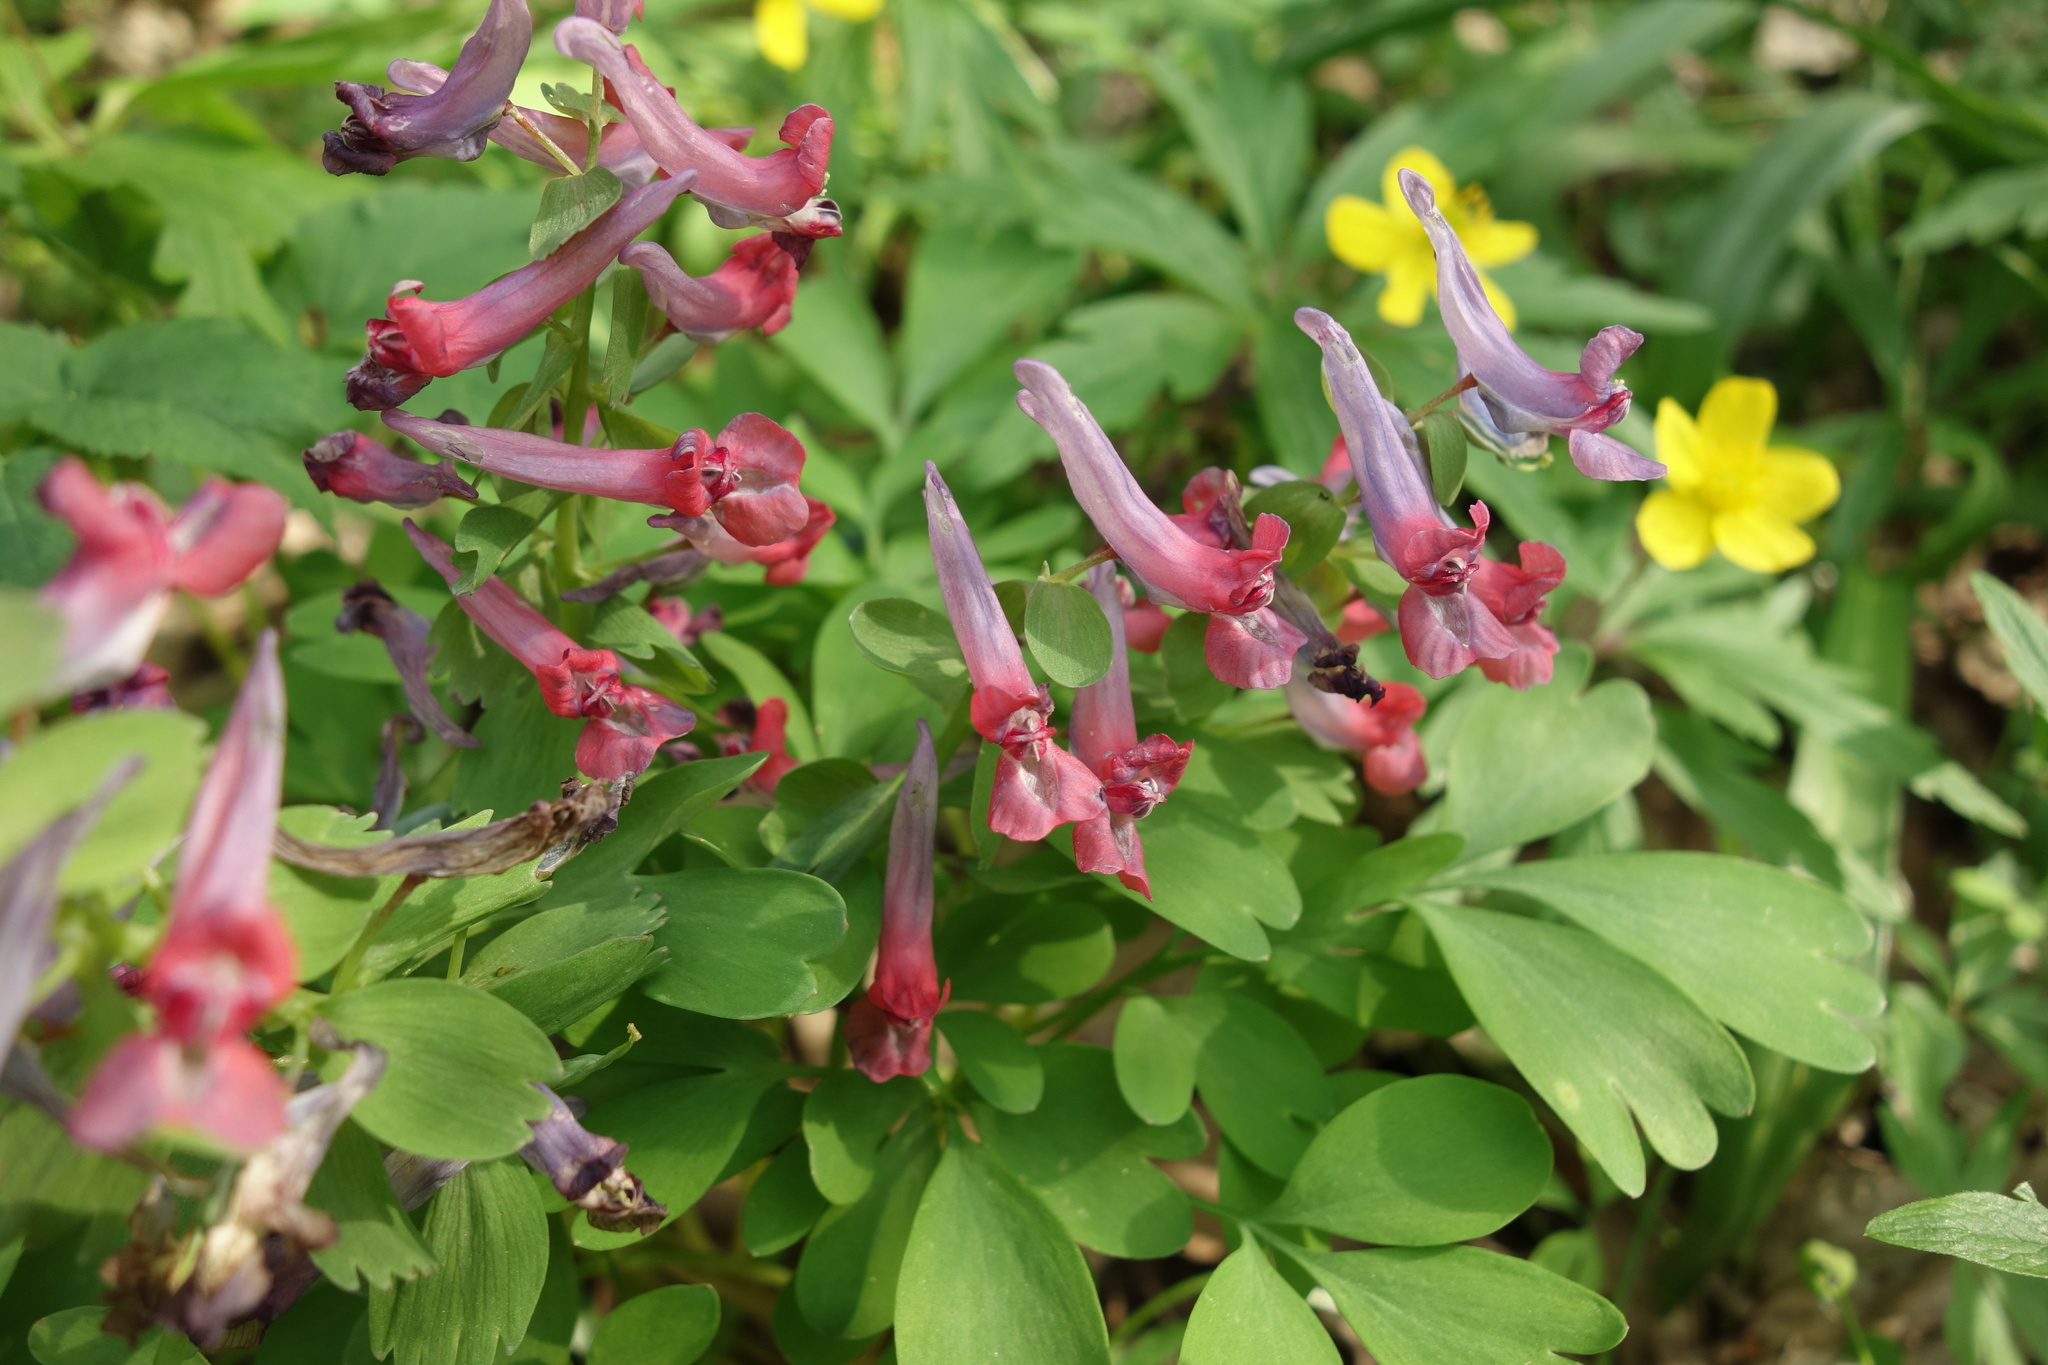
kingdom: Plantae
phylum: Tracheophyta
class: Magnoliopsida
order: Ranunculales
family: Papaveraceae
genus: Corydalis
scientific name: Corydalis solida
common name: Bird-in-a-bush
